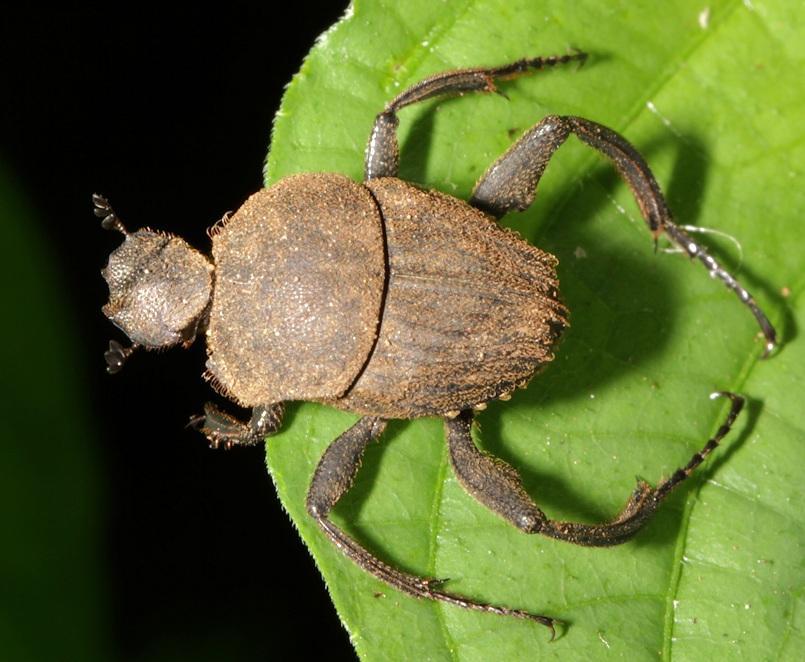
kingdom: Animalia
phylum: Arthropoda
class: Insecta
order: Coleoptera
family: Scarabaeidae
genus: Sisyphus
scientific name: Sisyphus impressipennis
